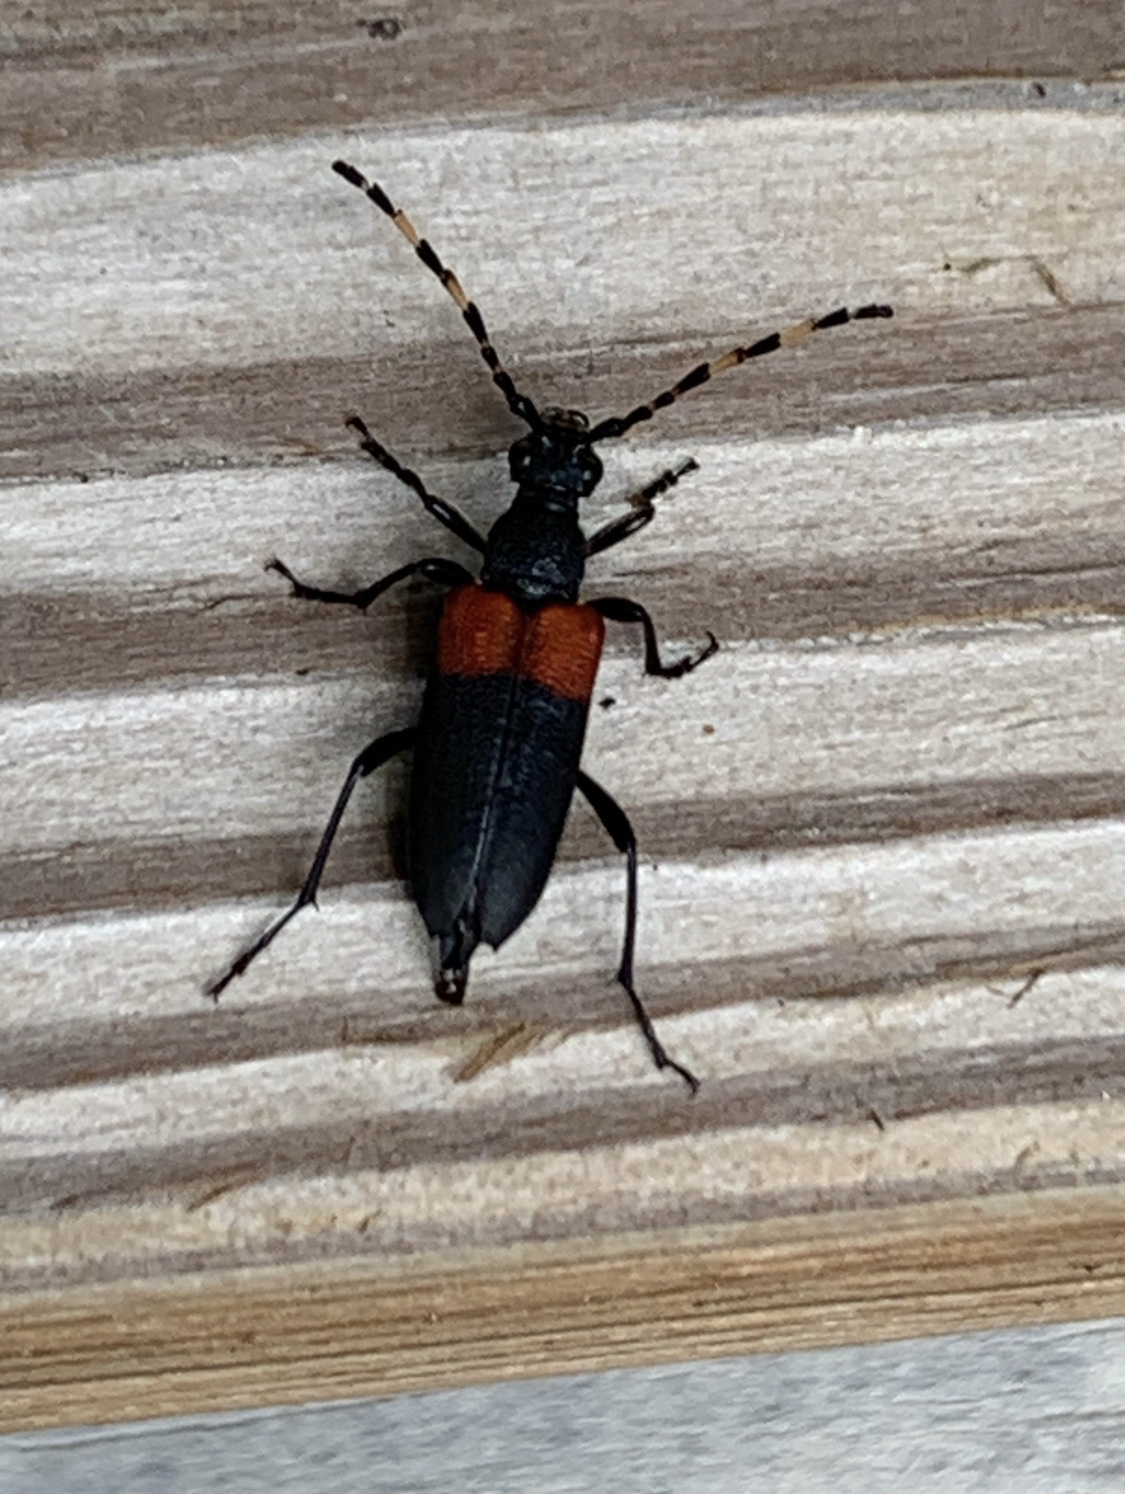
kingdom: Animalia
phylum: Arthropoda
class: Insecta
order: Coleoptera
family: Cerambycidae
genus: Stictoleptura
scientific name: Stictoleptura canadensis
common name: Red-shouldered pine borer
